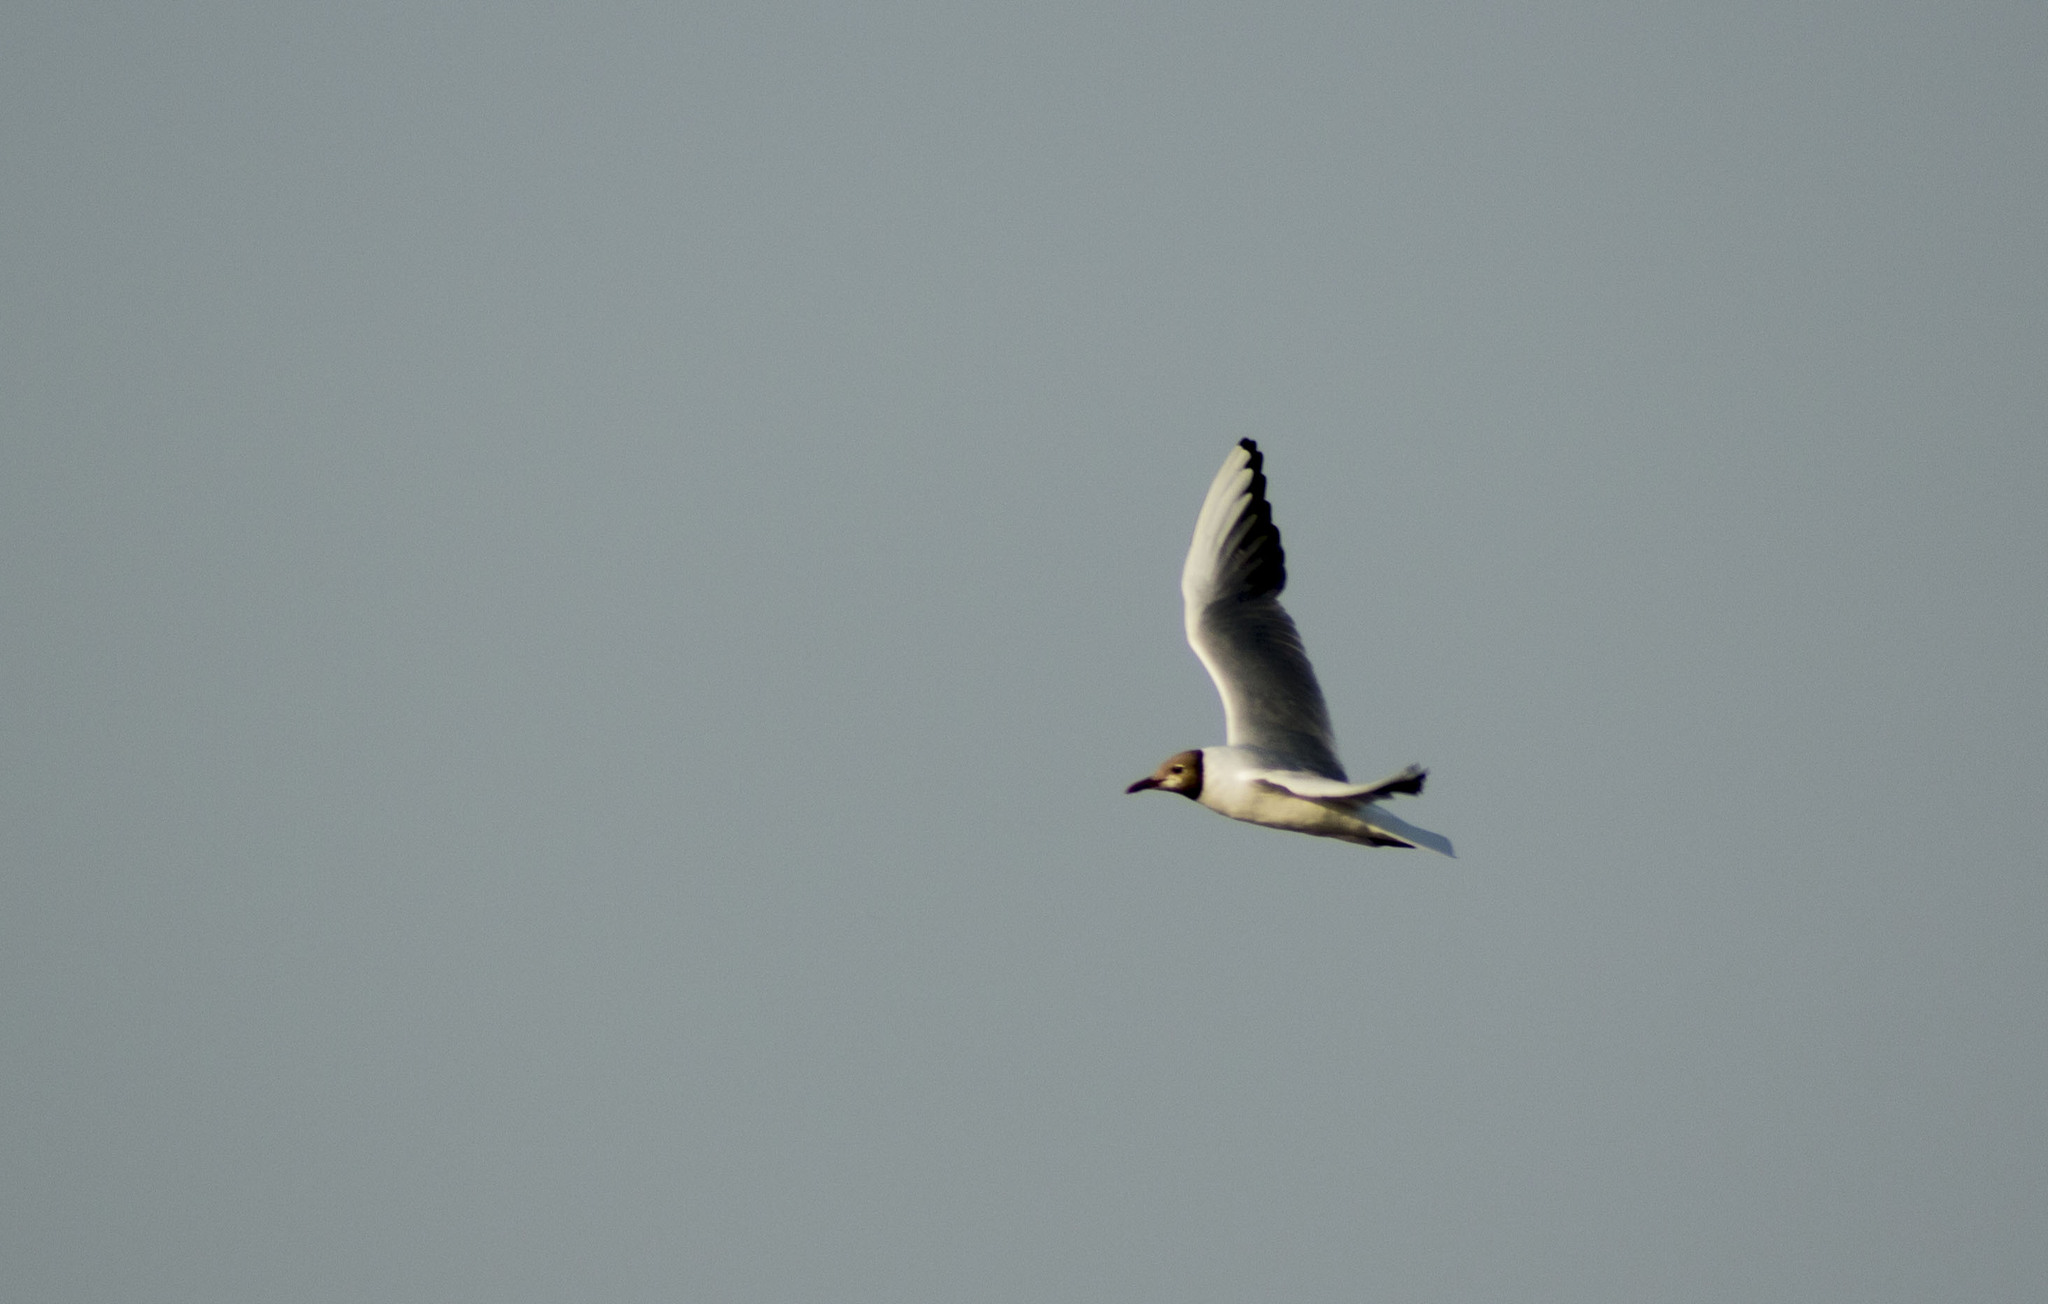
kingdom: Animalia
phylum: Chordata
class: Aves
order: Charadriiformes
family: Laridae
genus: Chroicocephalus
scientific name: Chroicocephalus ridibundus
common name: Black-headed gull
